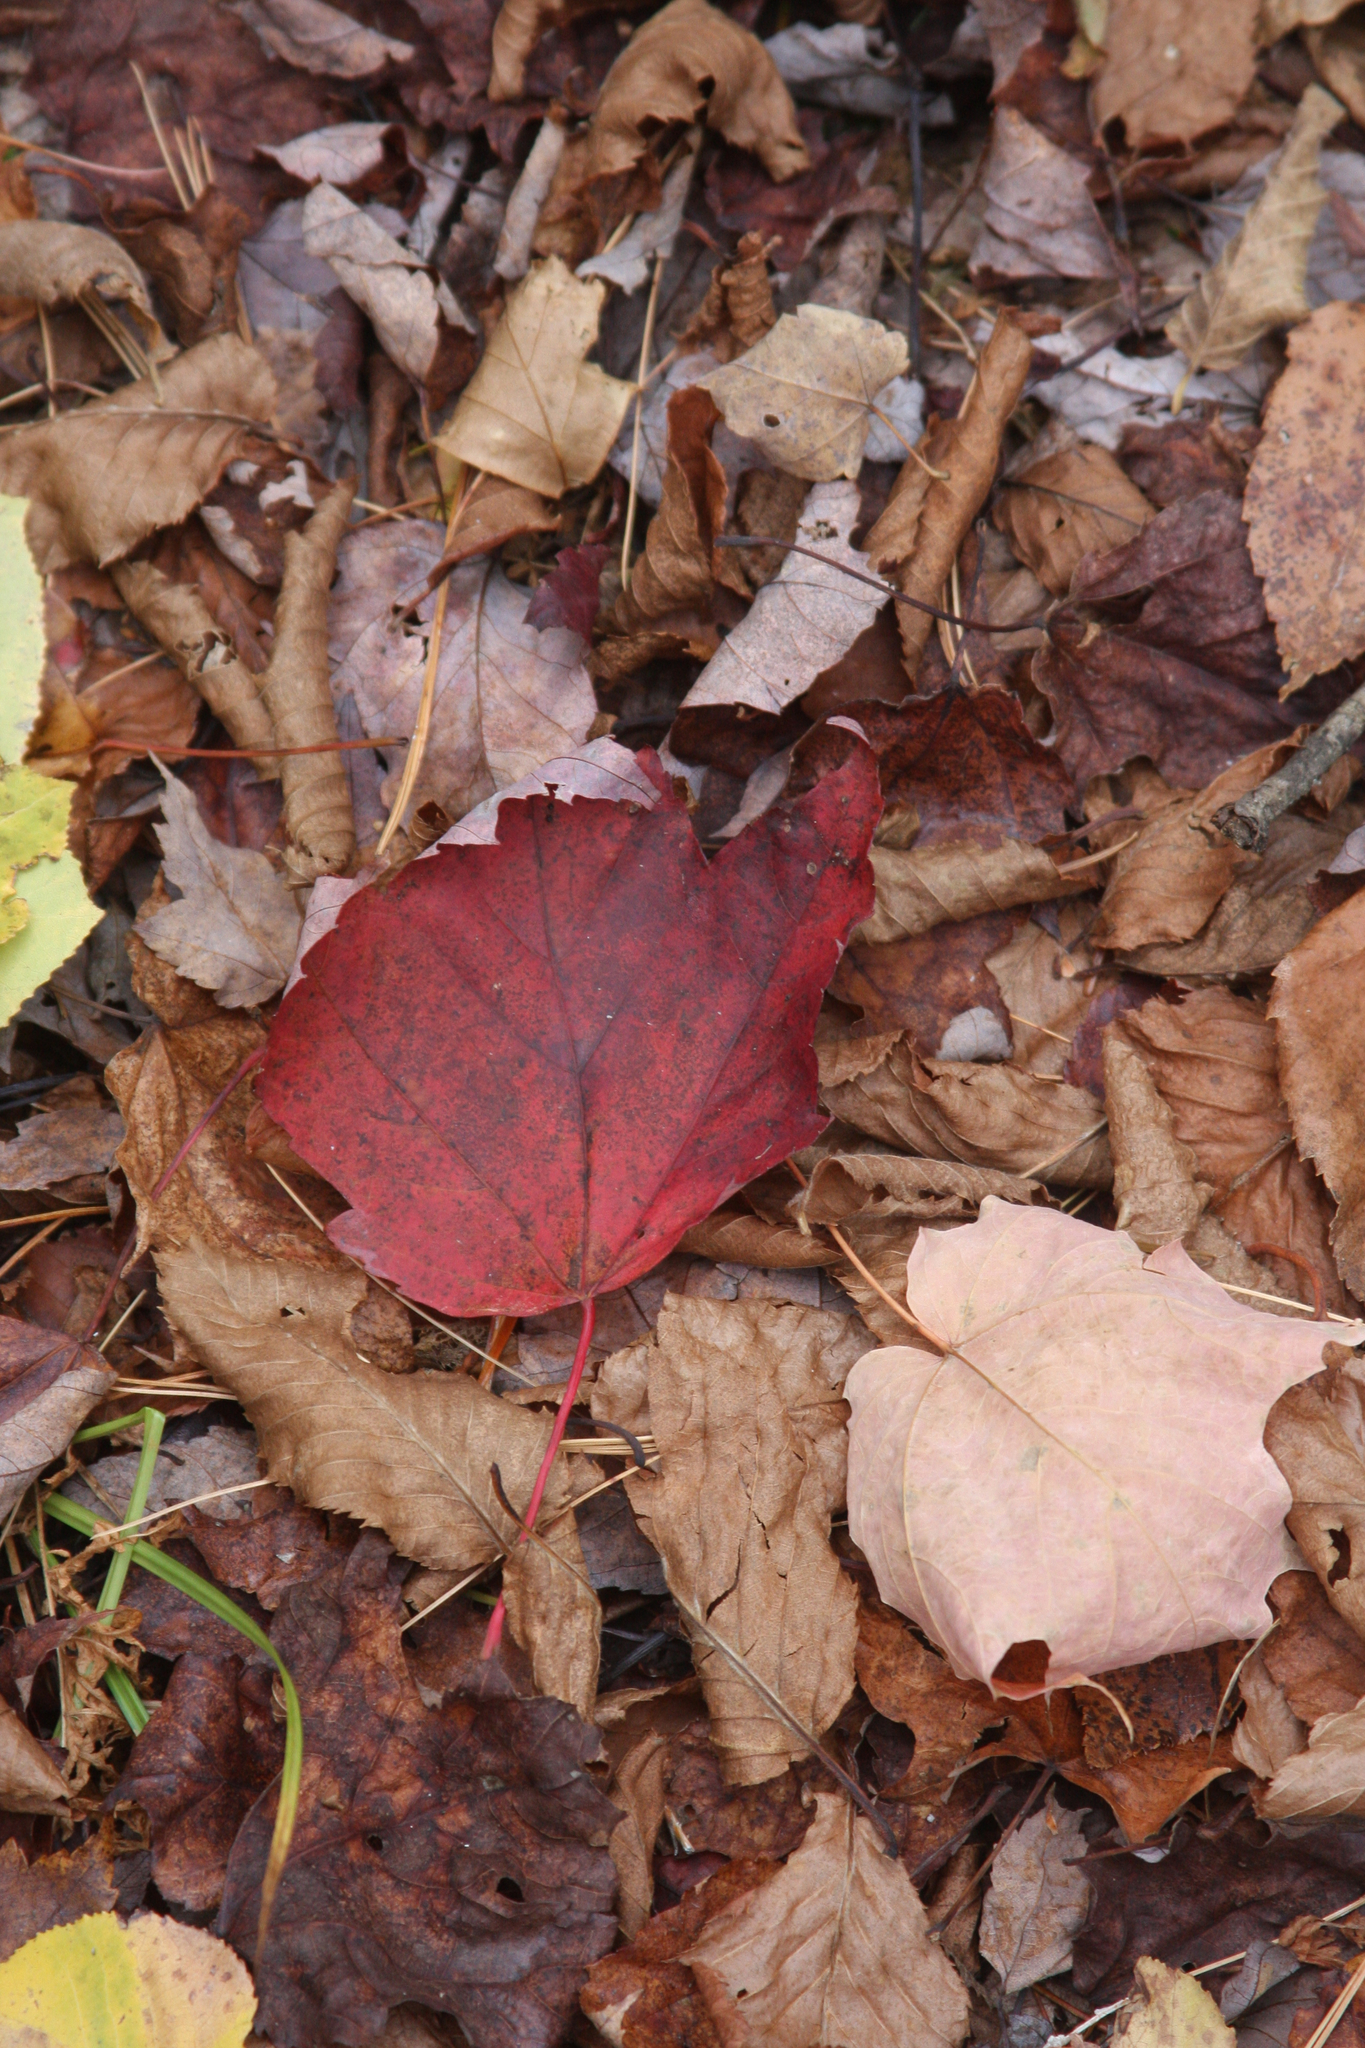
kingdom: Plantae
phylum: Tracheophyta
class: Magnoliopsida
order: Sapindales
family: Sapindaceae
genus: Acer
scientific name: Acer rubrum
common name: Red maple
